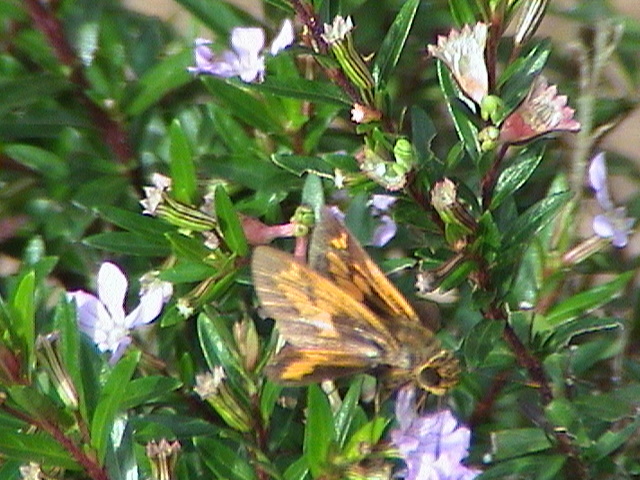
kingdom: Animalia
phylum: Arthropoda
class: Insecta
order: Lepidoptera
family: Hesperiidae
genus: Oriens
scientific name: Oriens goloides
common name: Smaller dartlet
